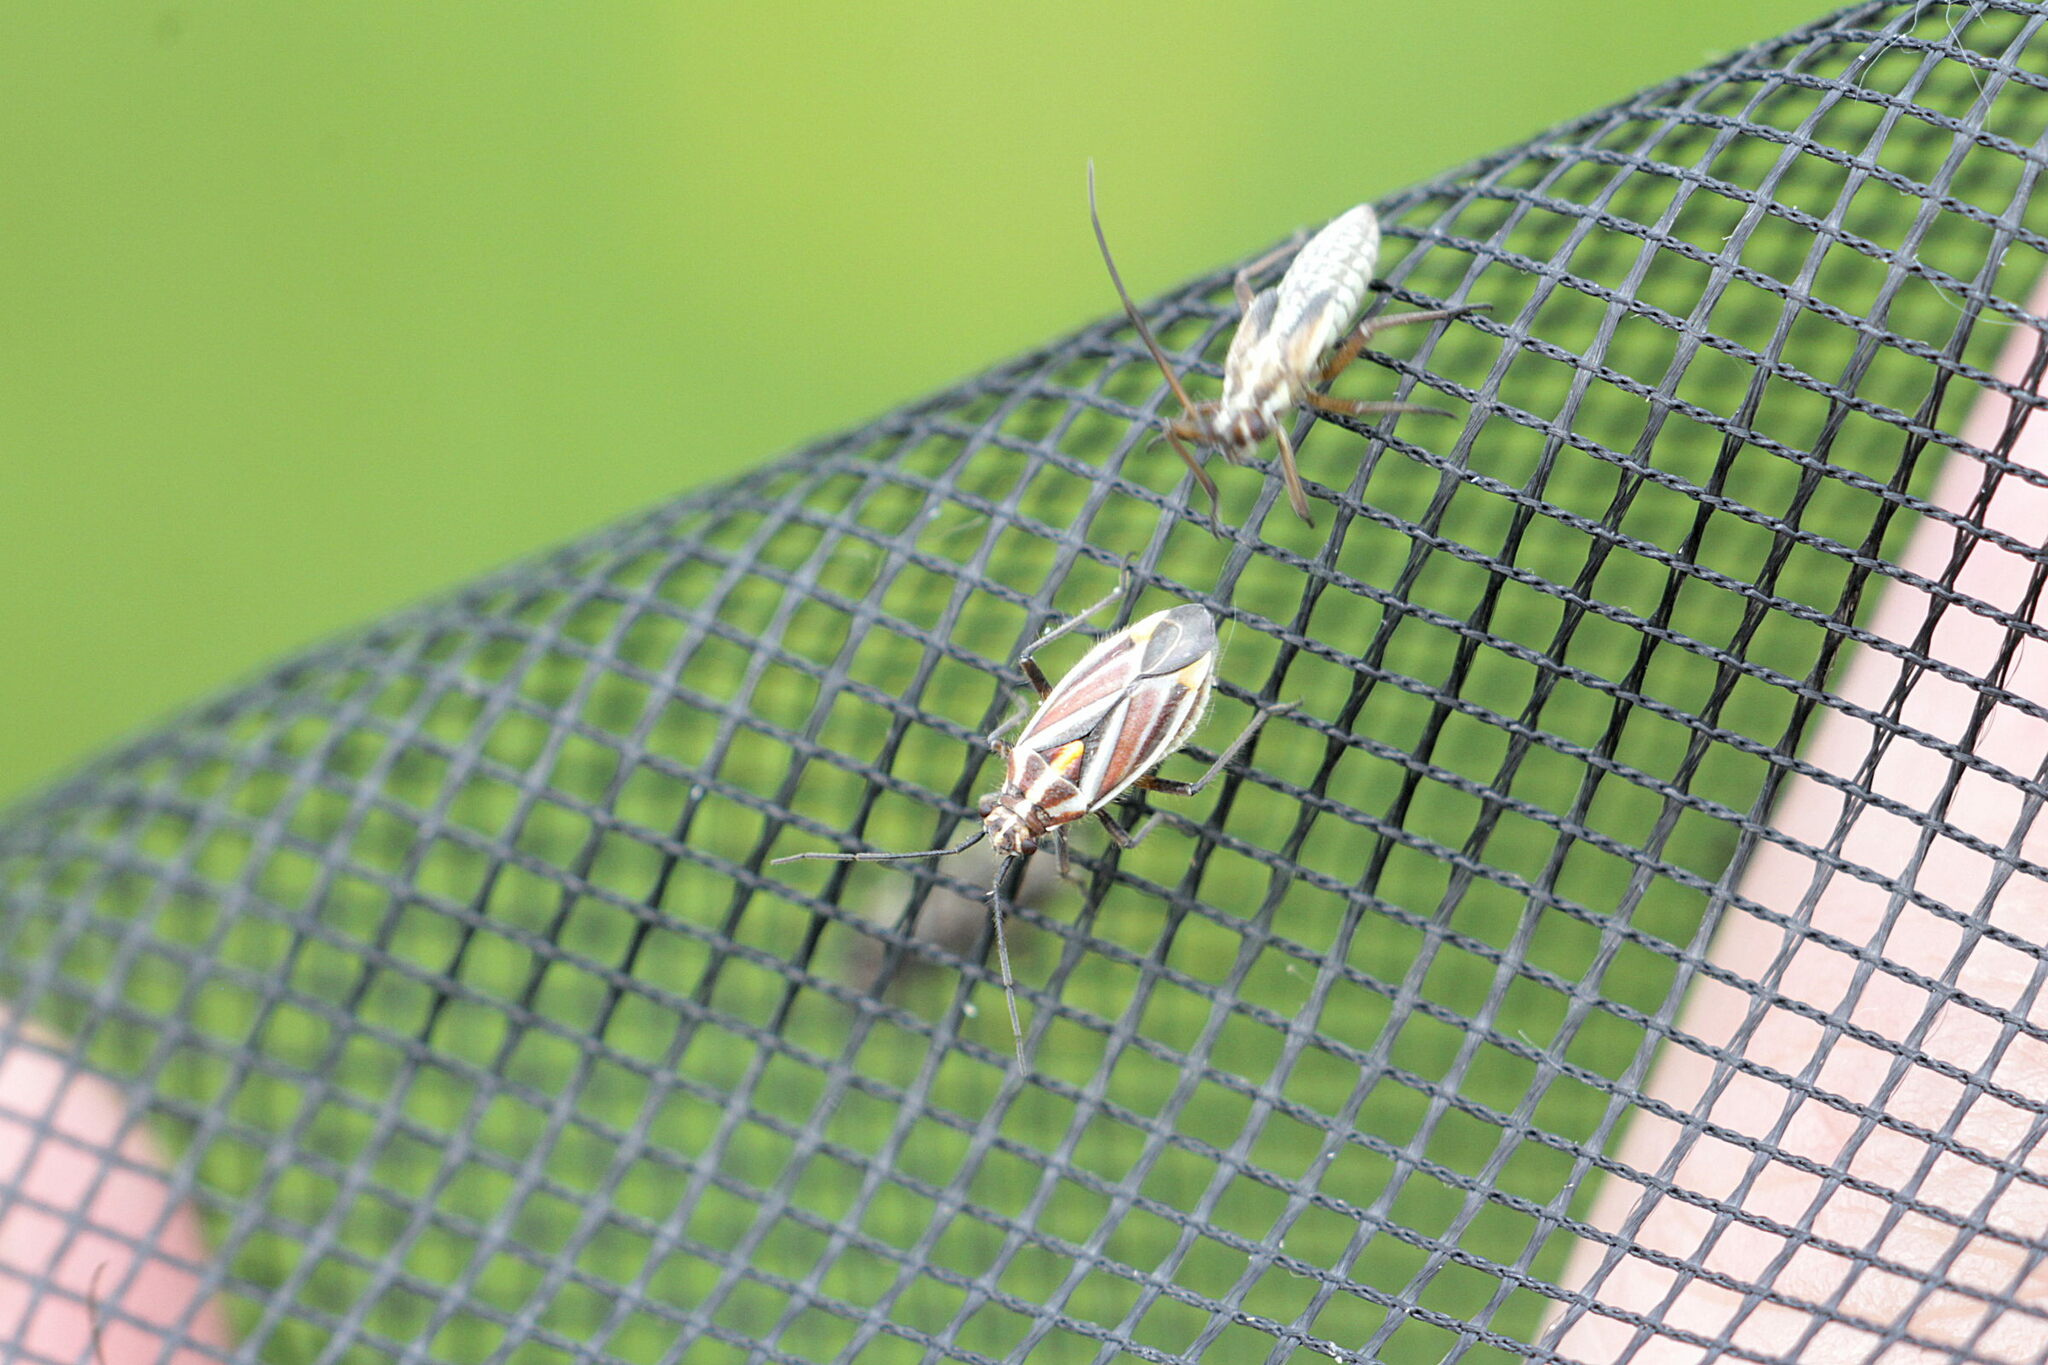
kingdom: Animalia
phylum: Arthropoda
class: Insecta
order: Hemiptera
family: Miridae
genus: Horistus
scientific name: Horistus orientalis
